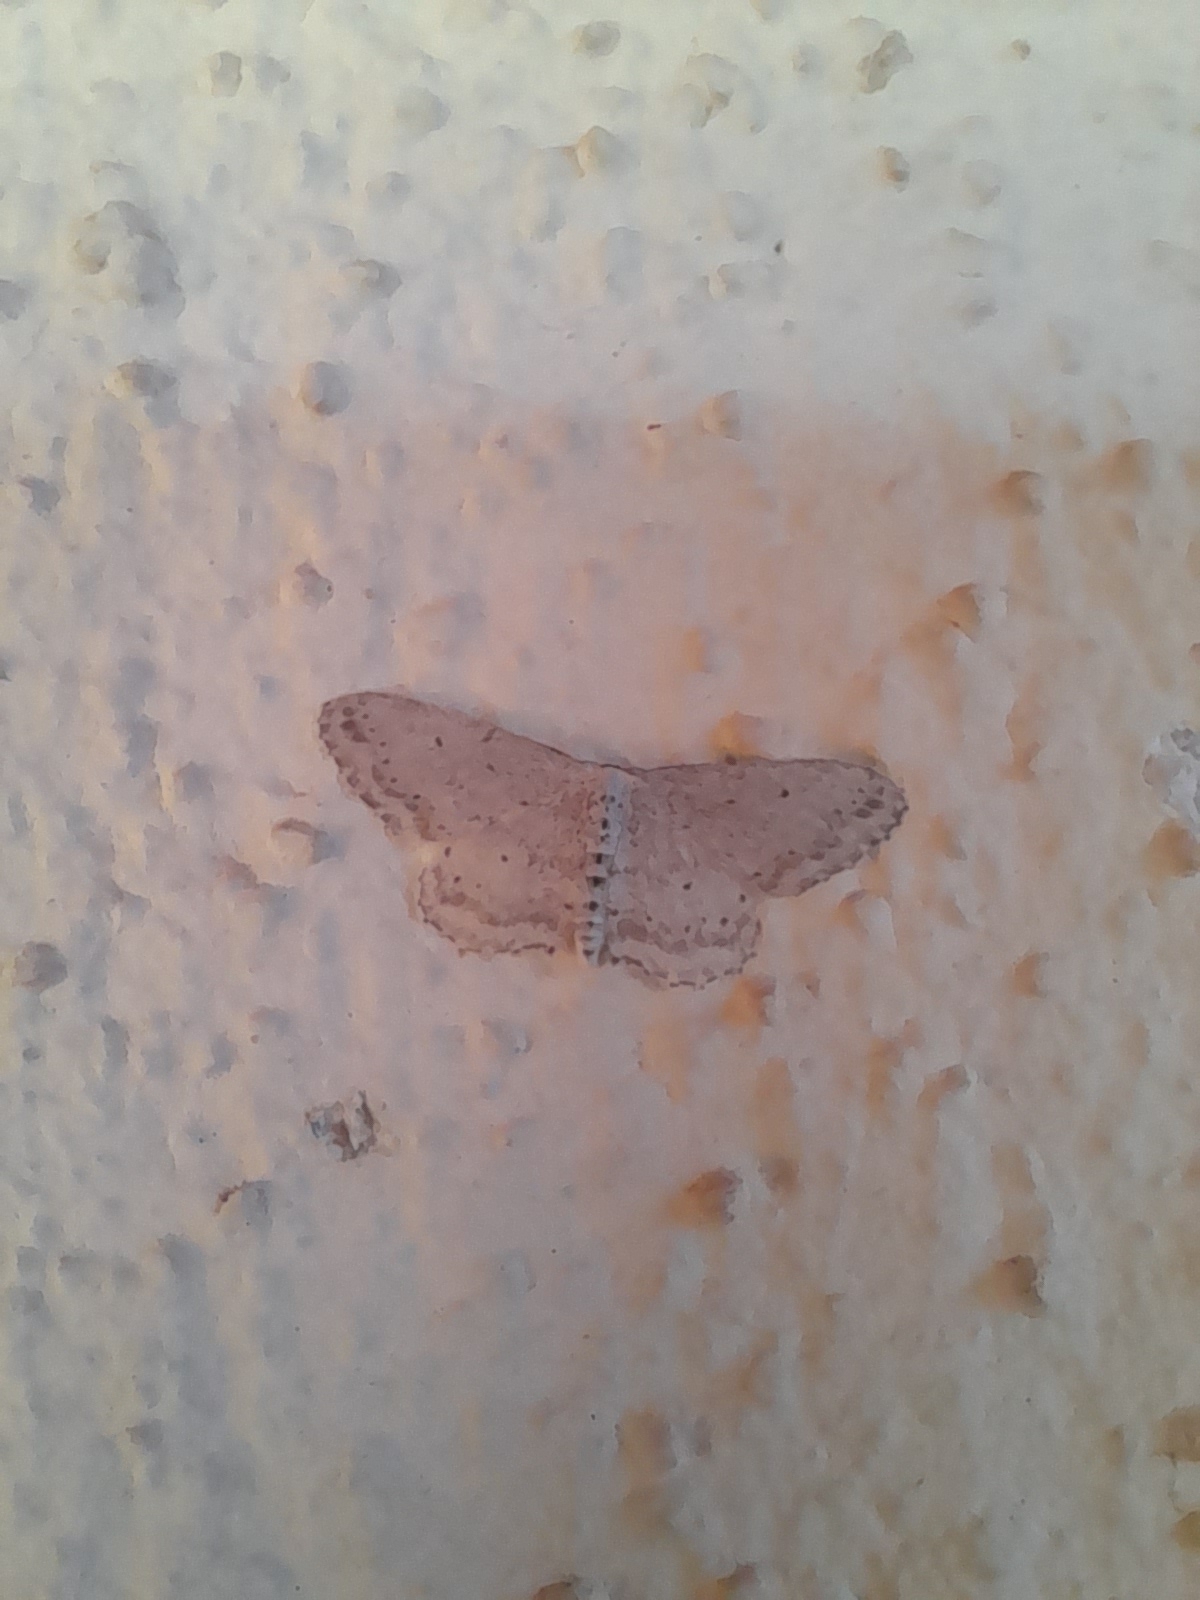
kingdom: Animalia
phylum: Arthropoda
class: Insecta
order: Lepidoptera
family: Geometridae
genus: Idaea
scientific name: Idaea seriata
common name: Small dusty wave
